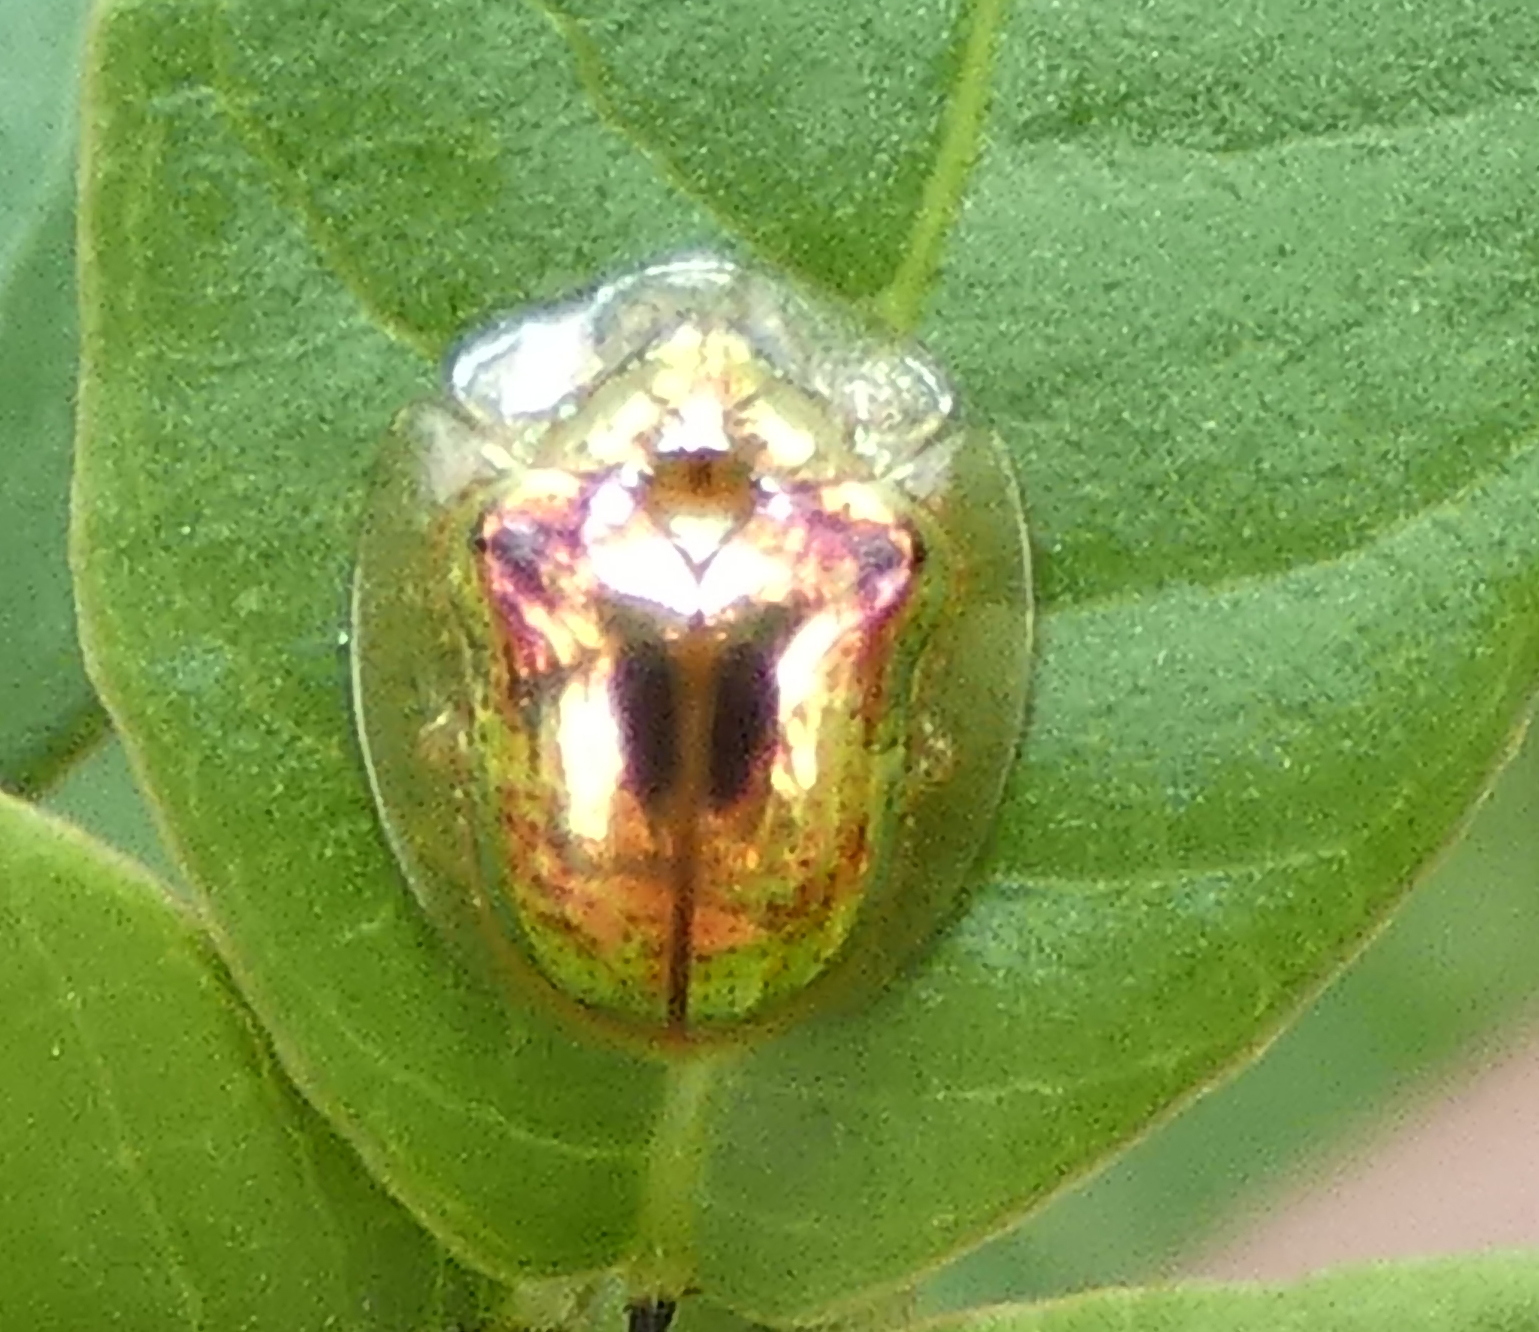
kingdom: Animalia
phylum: Arthropoda
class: Insecta
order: Coleoptera
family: Chrysomelidae
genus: Charidotella
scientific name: Charidotella zona
